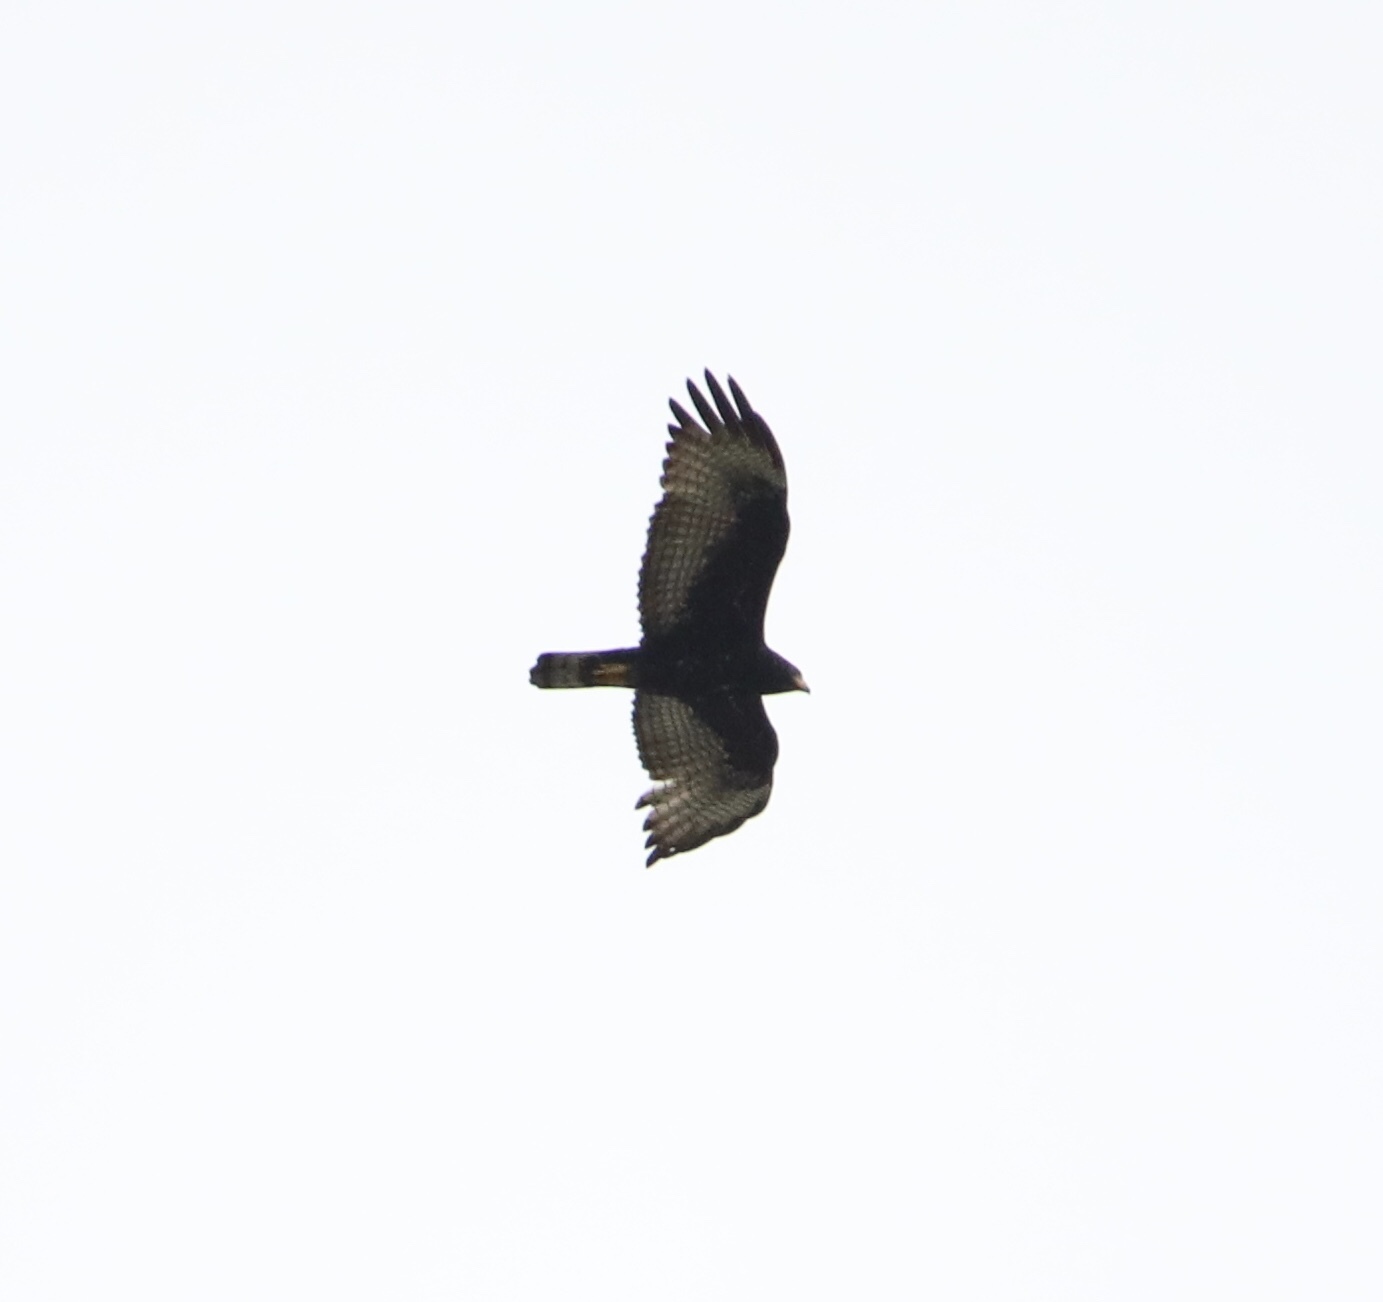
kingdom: Animalia
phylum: Chordata
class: Aves
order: Accipitriformes
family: Accipitridae
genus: Buteo
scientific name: Buteo albonotatus
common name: Zone-tailed hawk
